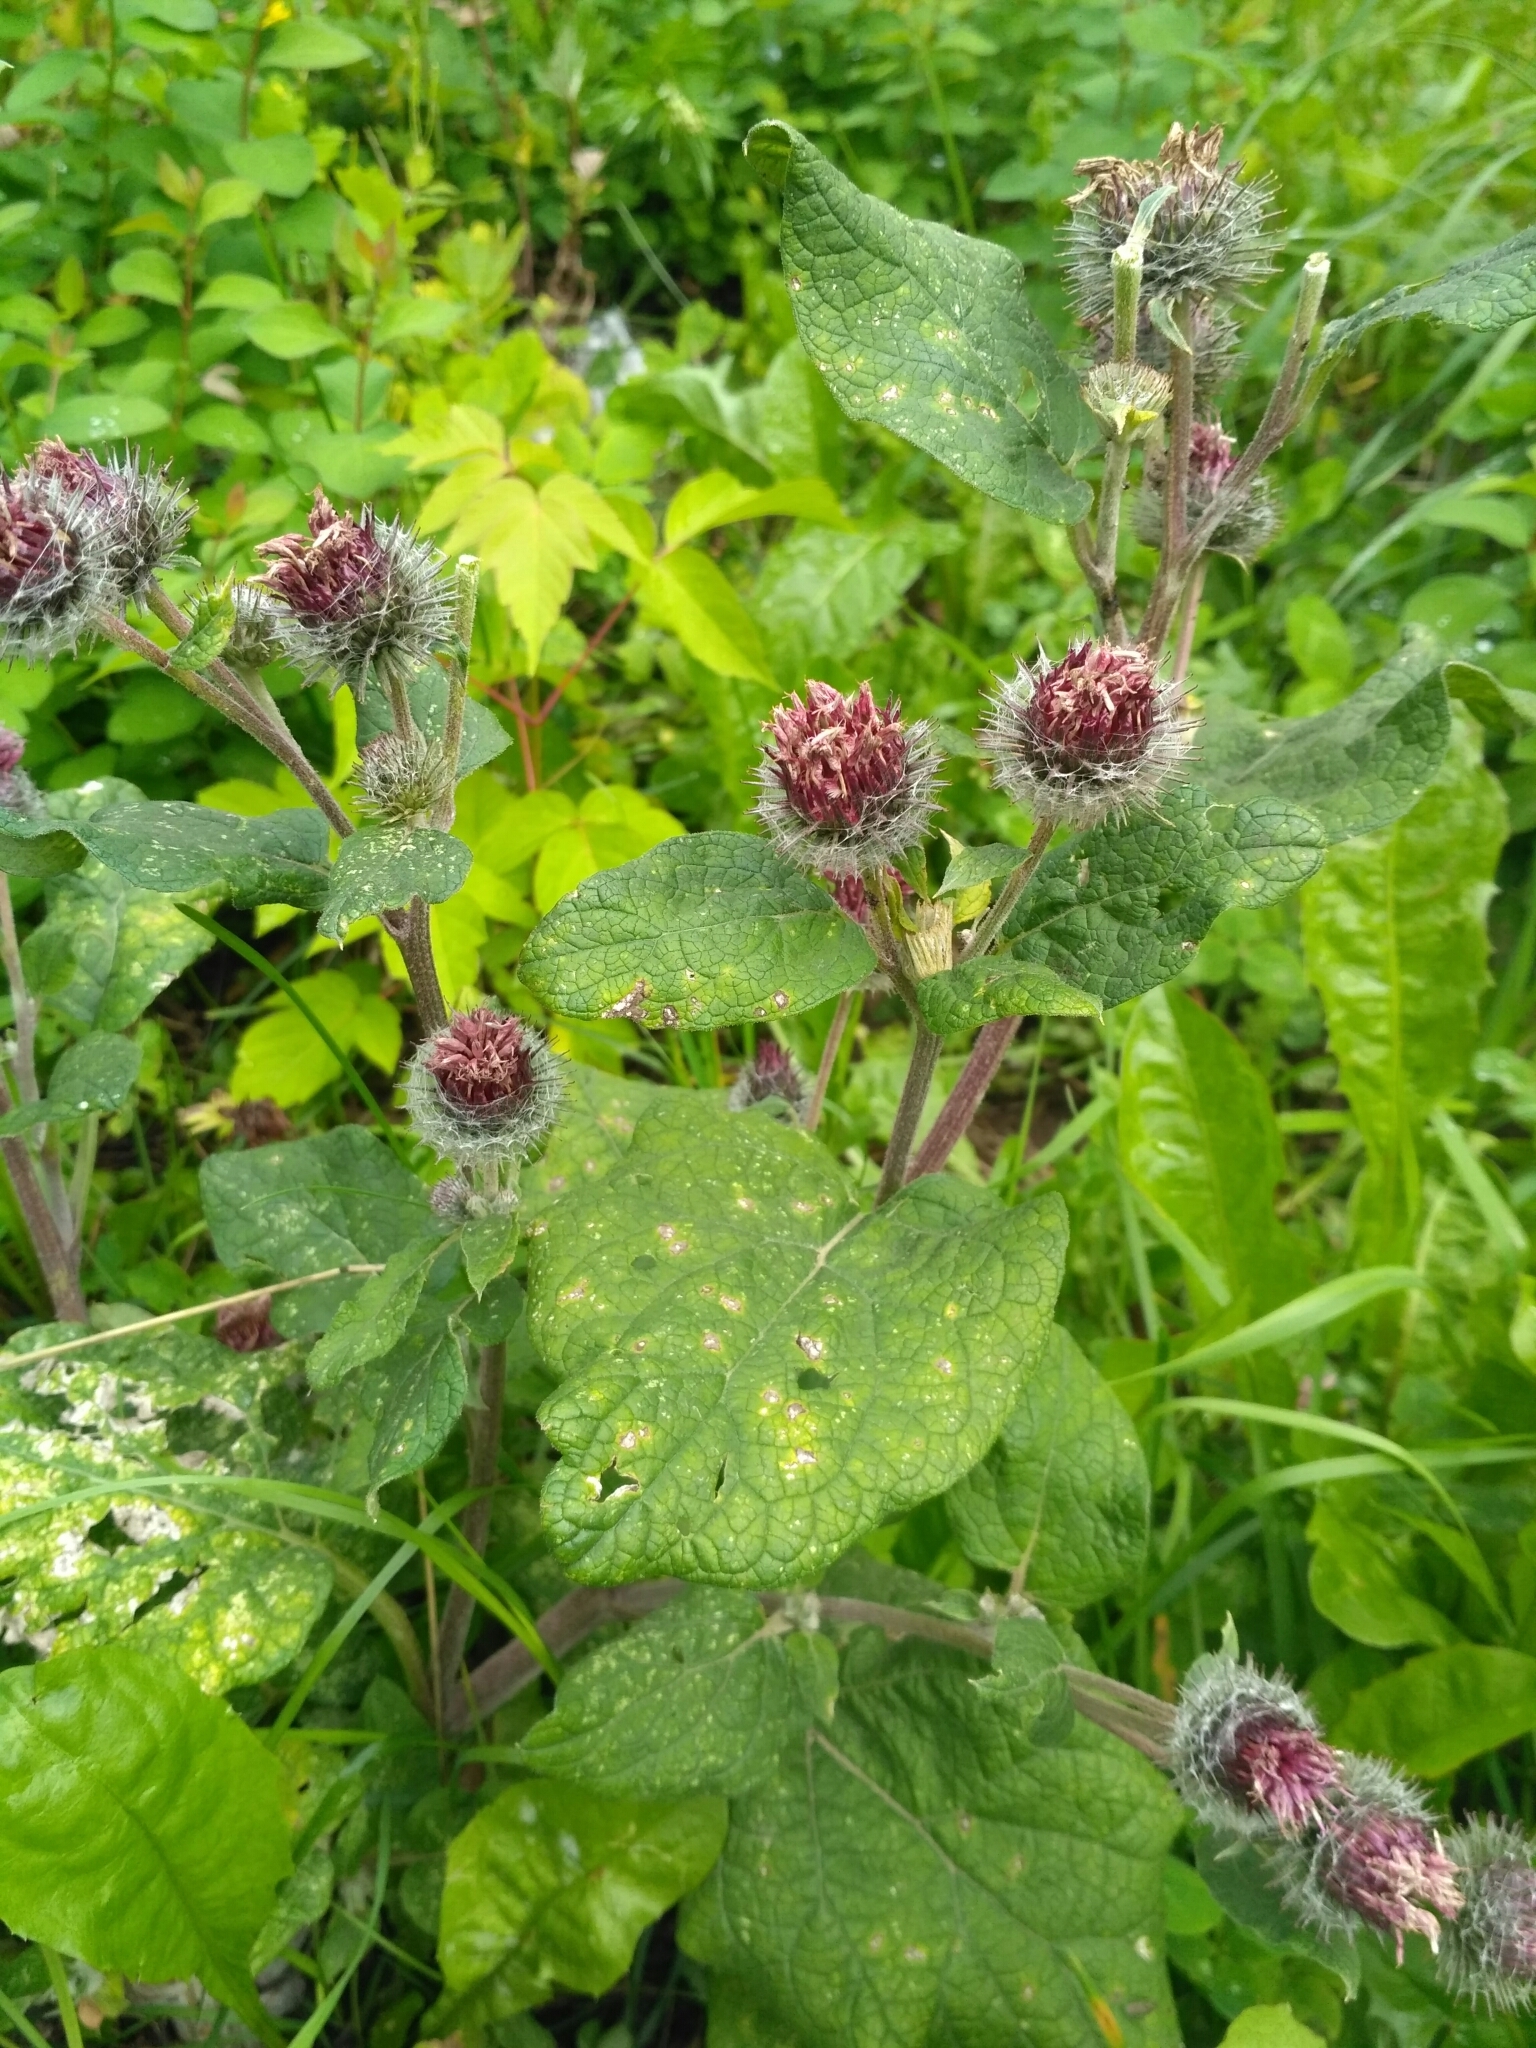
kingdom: Plantae
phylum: Tracheophyta
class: Magnoliopsida
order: Asterales
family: Asteraceae
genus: Arctium
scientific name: Arctium tomentosum
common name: Woolly burdock
